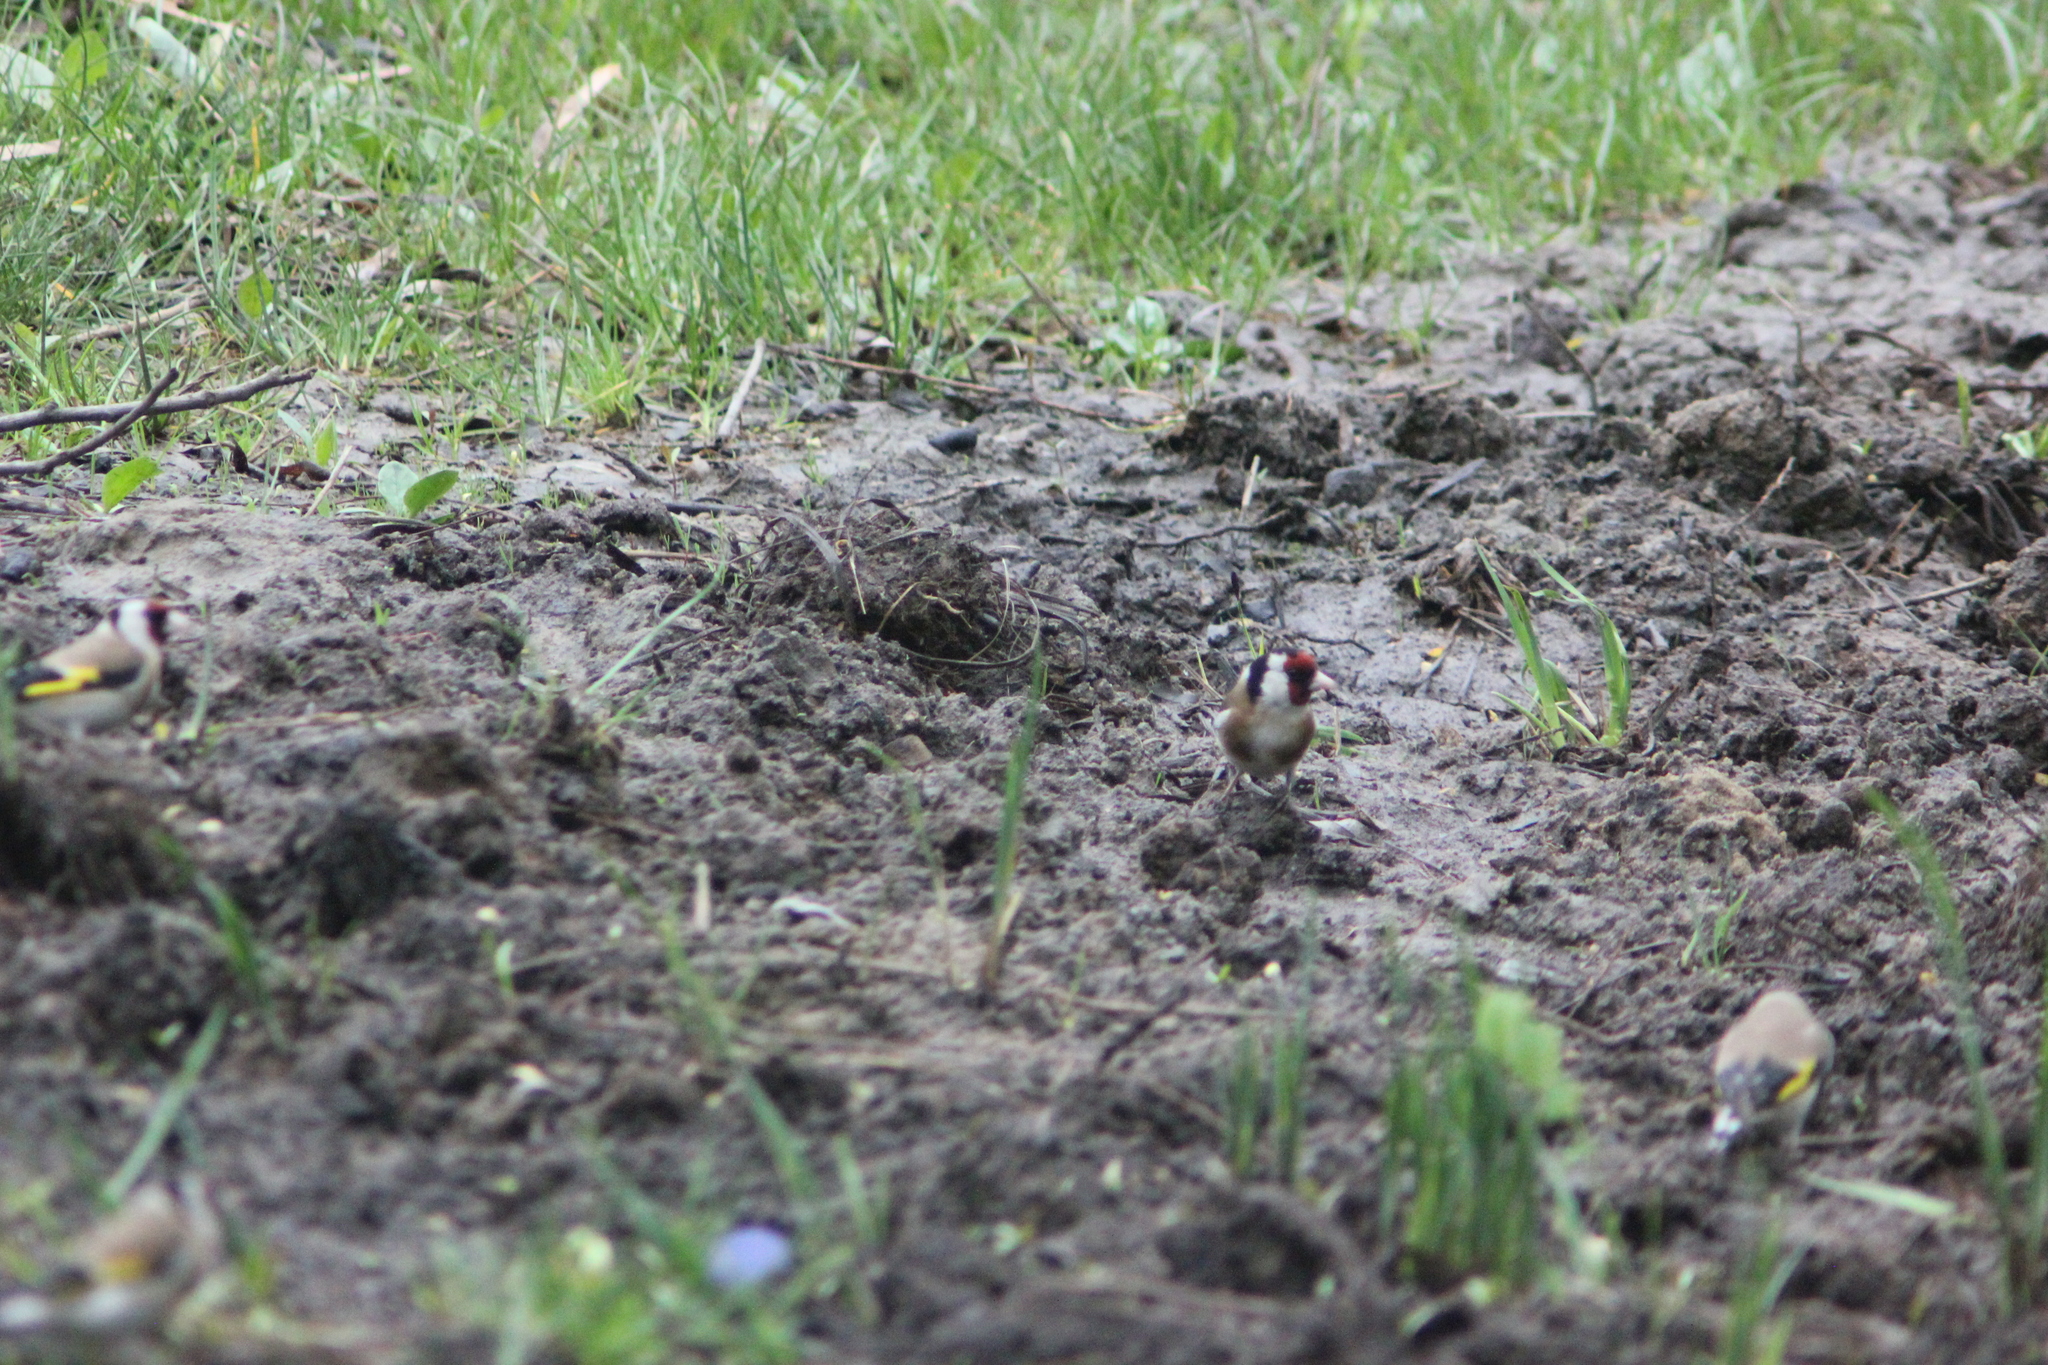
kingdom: Animalia
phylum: Chordata
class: Aves
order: Passeriformes
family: Fringillidae
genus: Carduelis
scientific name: Carduelis carduelis
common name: European goldfinch
